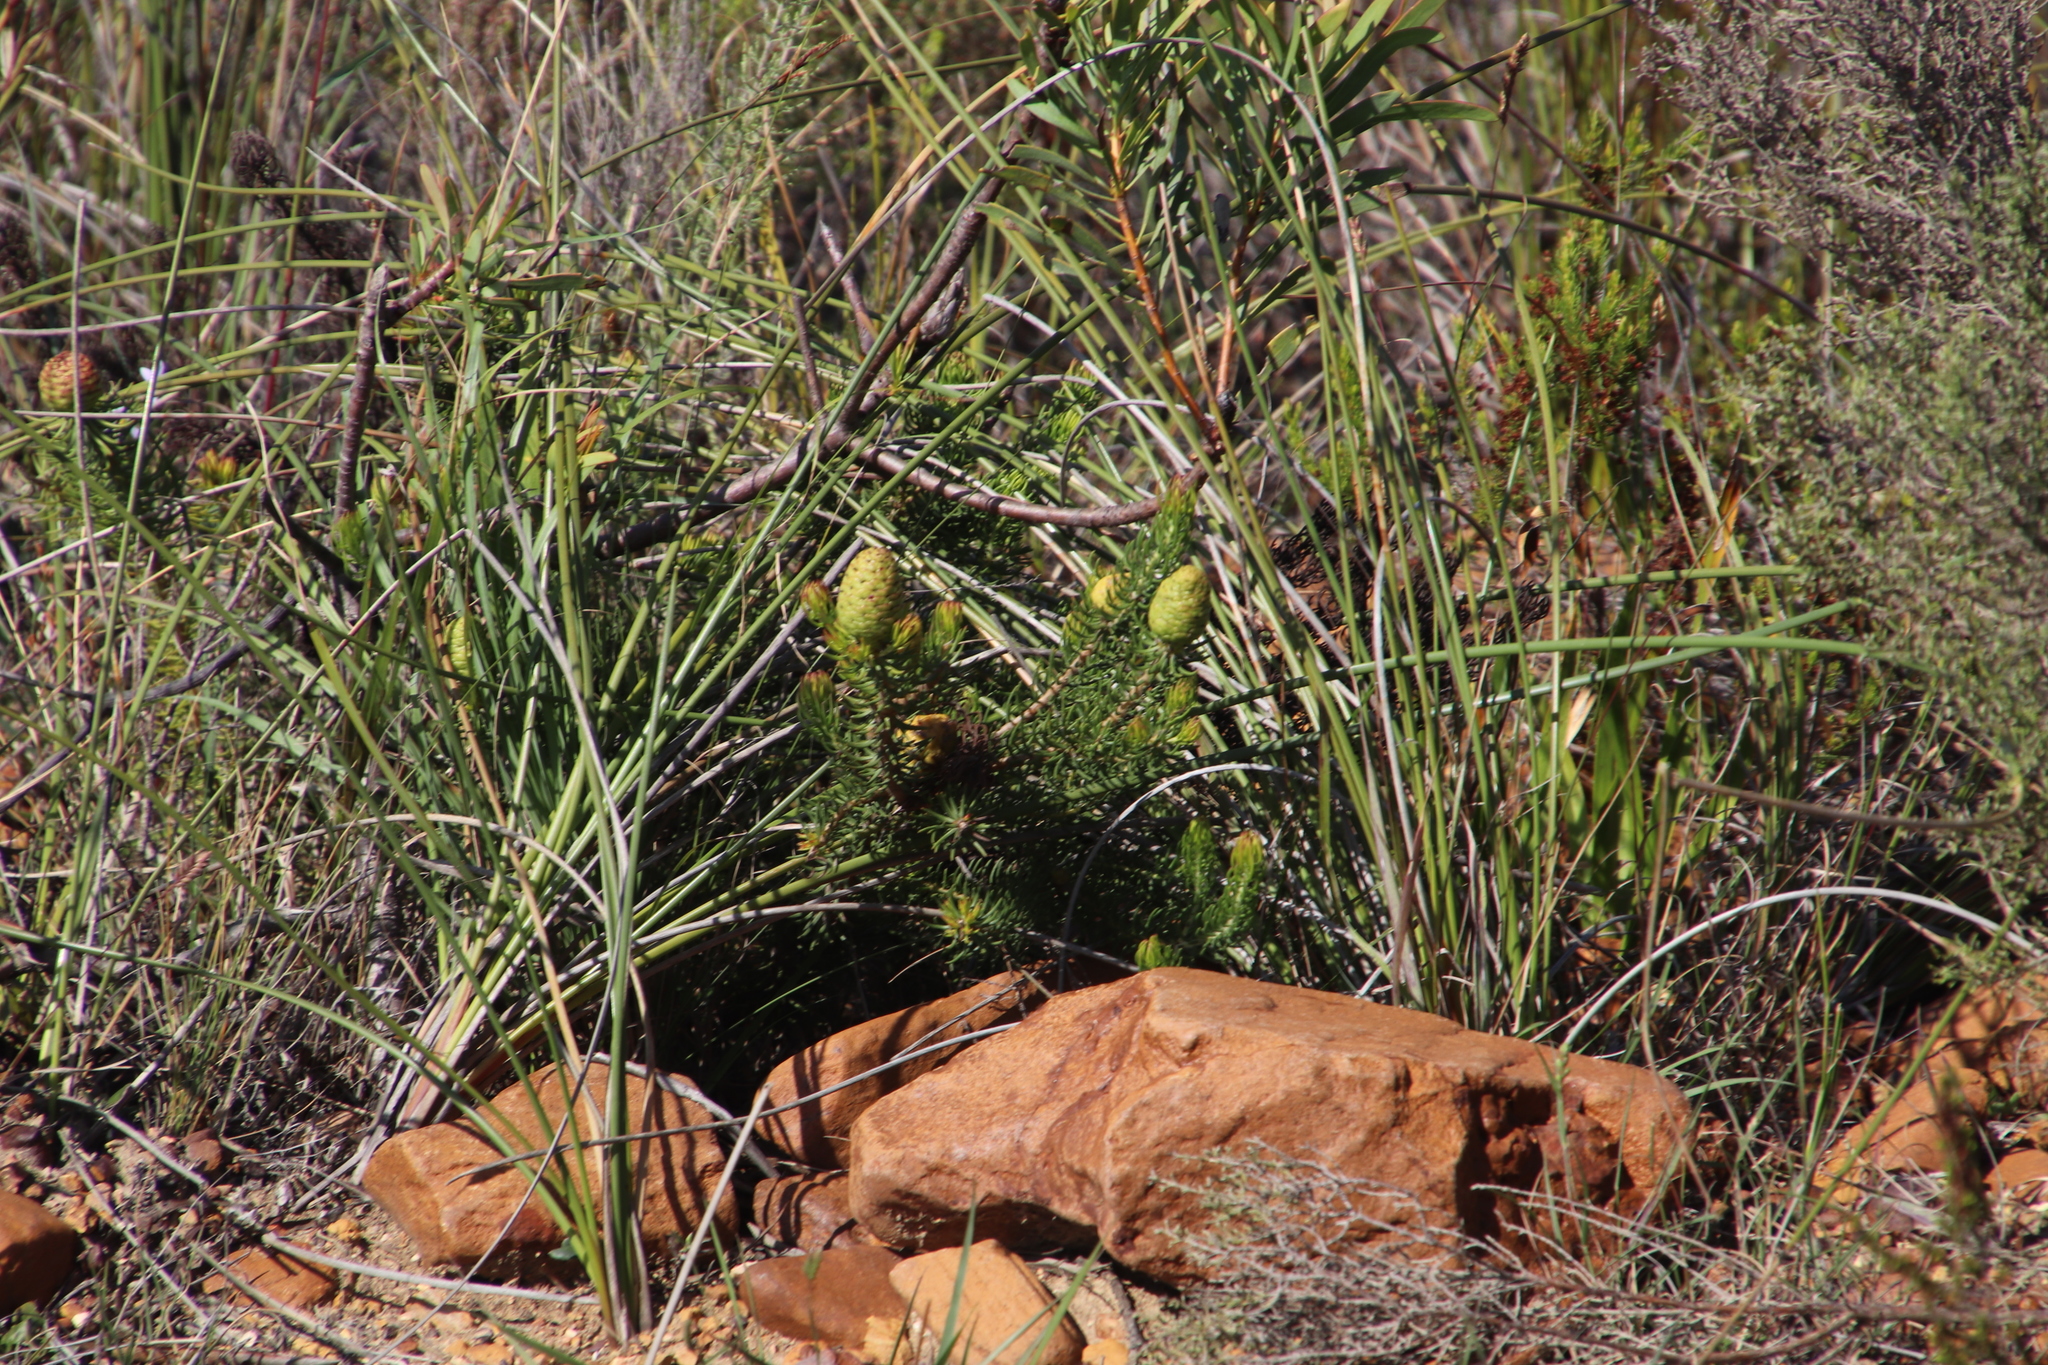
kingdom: Plantae
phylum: Tracheophyta
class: Magnoliopsida
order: Proteales
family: Proteaceae
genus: Leucadendron
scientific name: Leucadendron teretifolium
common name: Needle-leaf conebush
